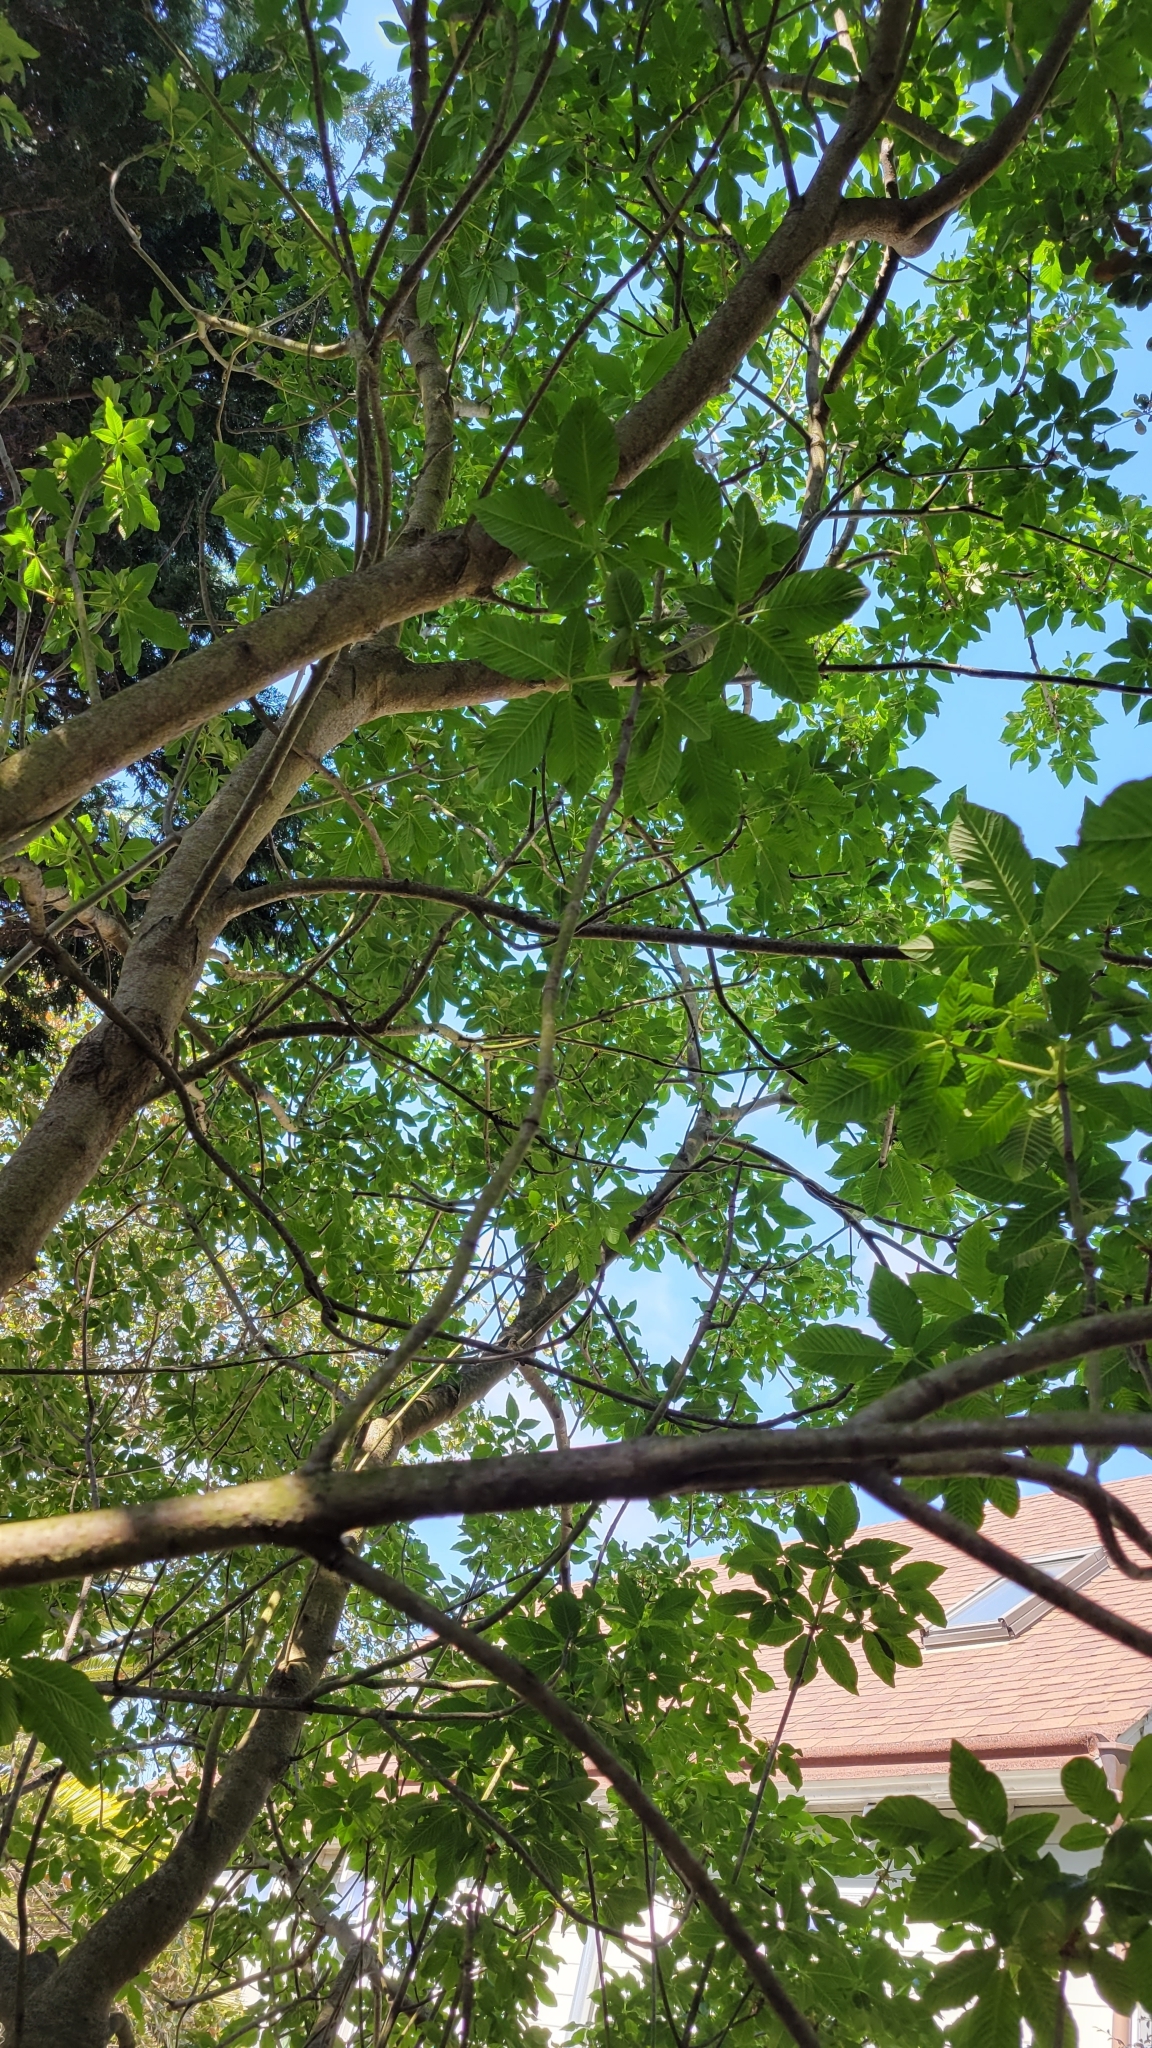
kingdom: Plantae
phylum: Tracheophyta
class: Magnoliopsida
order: Sapindales
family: Sapindaceae
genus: Aesculus
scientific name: Aesculus californica
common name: California buckeye
